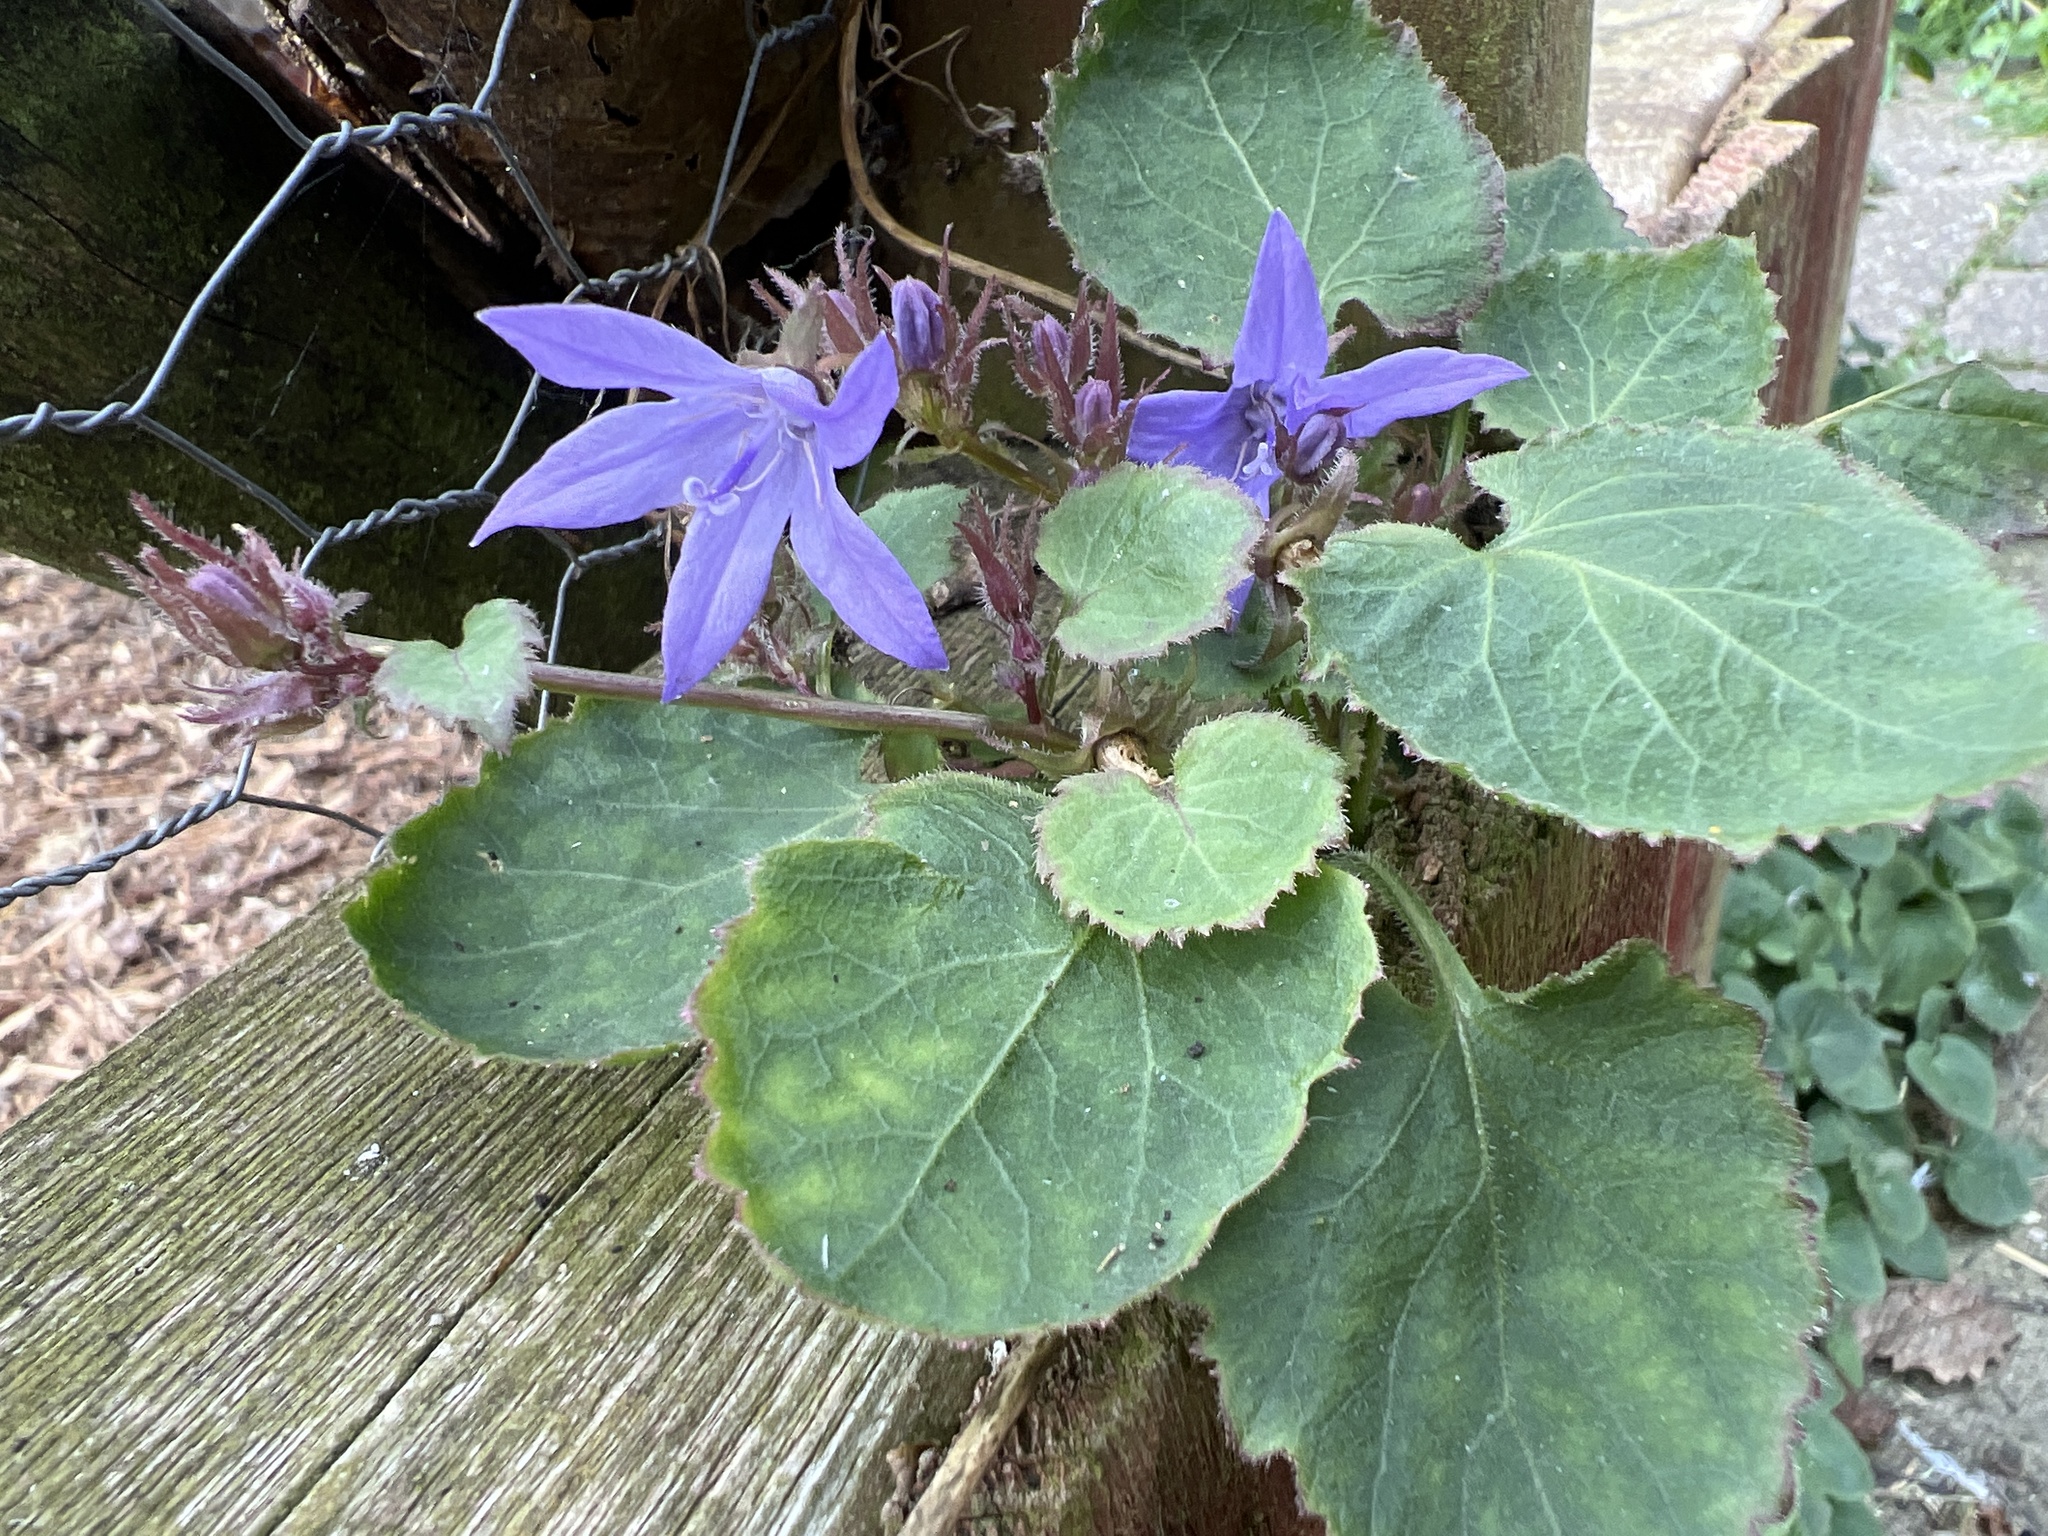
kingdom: Plantae
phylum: Tracheophyta
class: Magnoliopsida
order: Asterales
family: Campanulaceae
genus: Campanula
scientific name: Campanula poscharskyana
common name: Trailing bellflower
